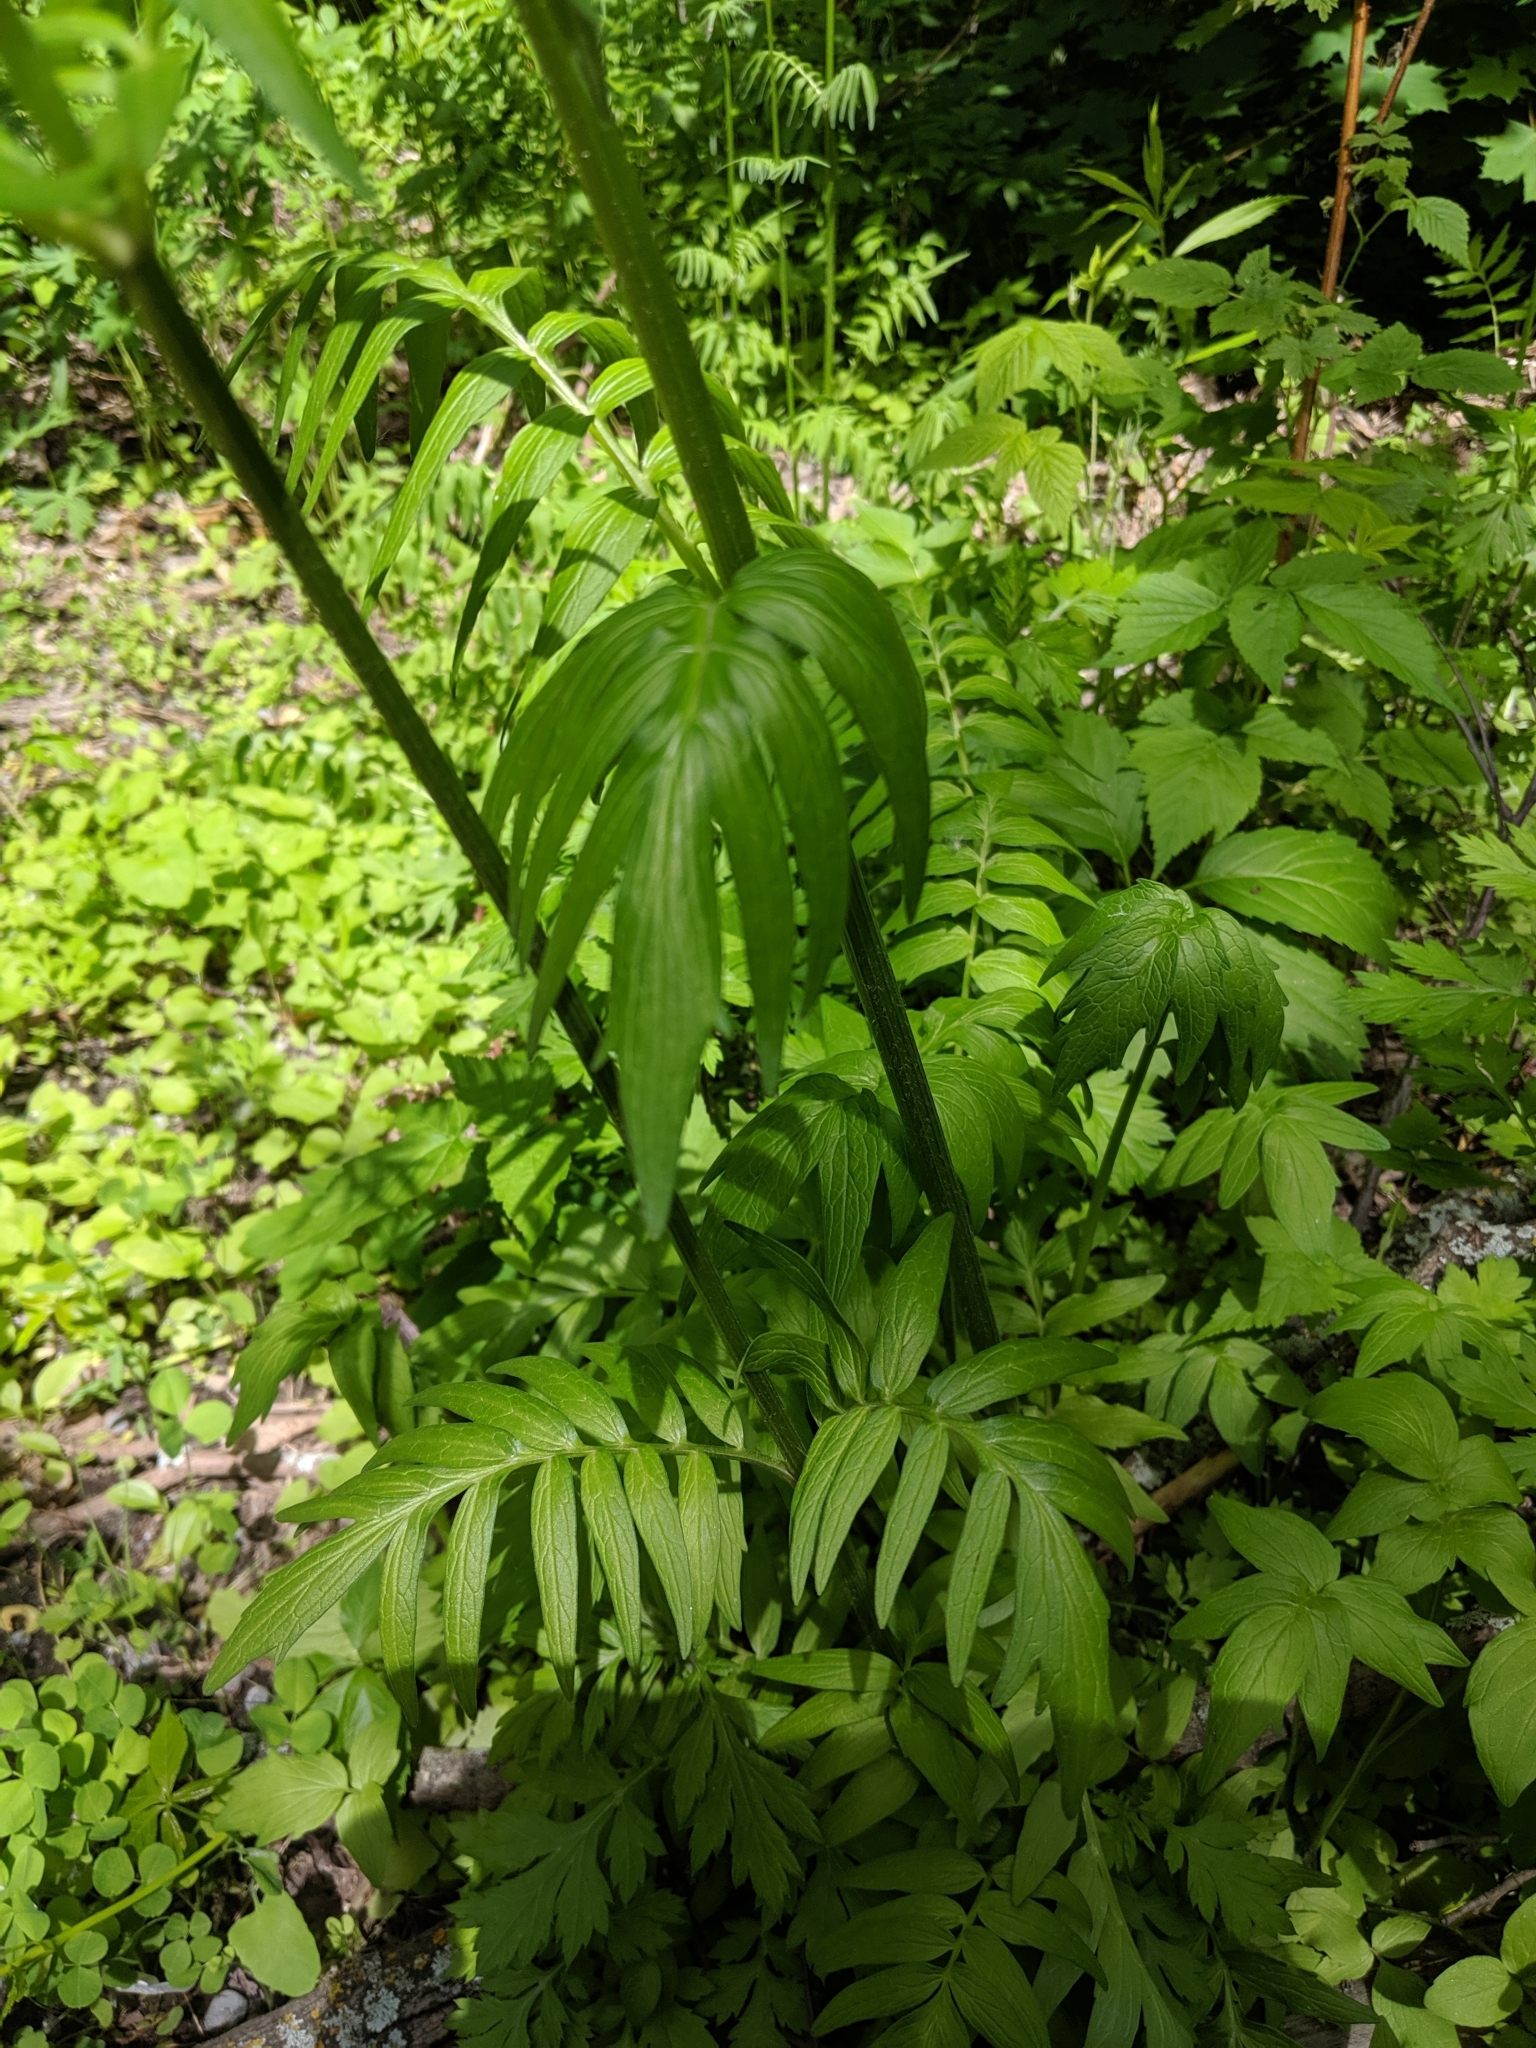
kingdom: Plantae
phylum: Tracheophyta
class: Magnoliopsida
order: Dipsacales
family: Caprifoliaceae
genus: Valeriana
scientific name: Valeriana officinalis
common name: Common valerian
